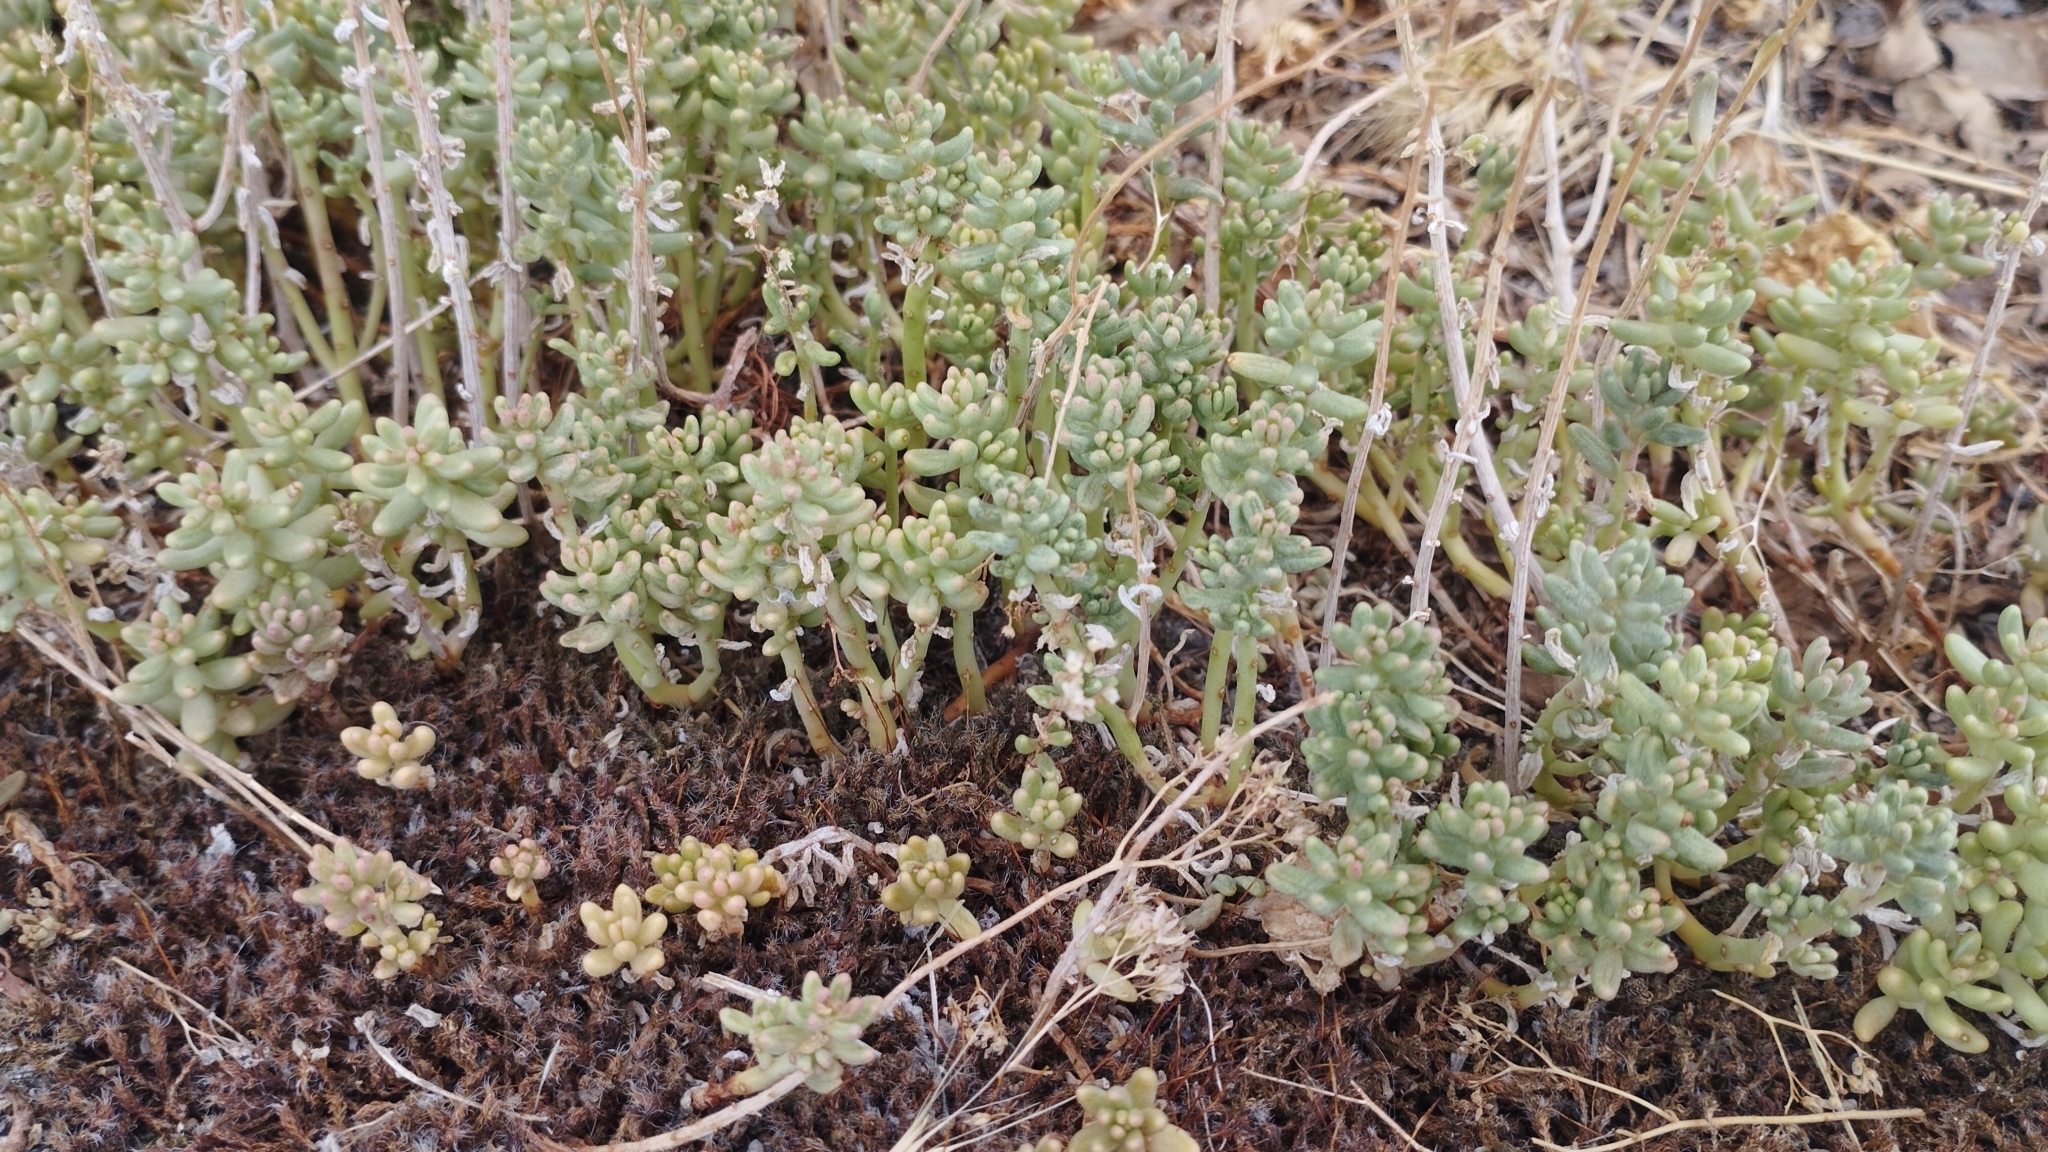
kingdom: Plantae
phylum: Tracheophyta
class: Magnoliopsida
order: Saxifragales
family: Crassulaceae
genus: Sedum
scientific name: Sedum album
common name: White stonecrop
